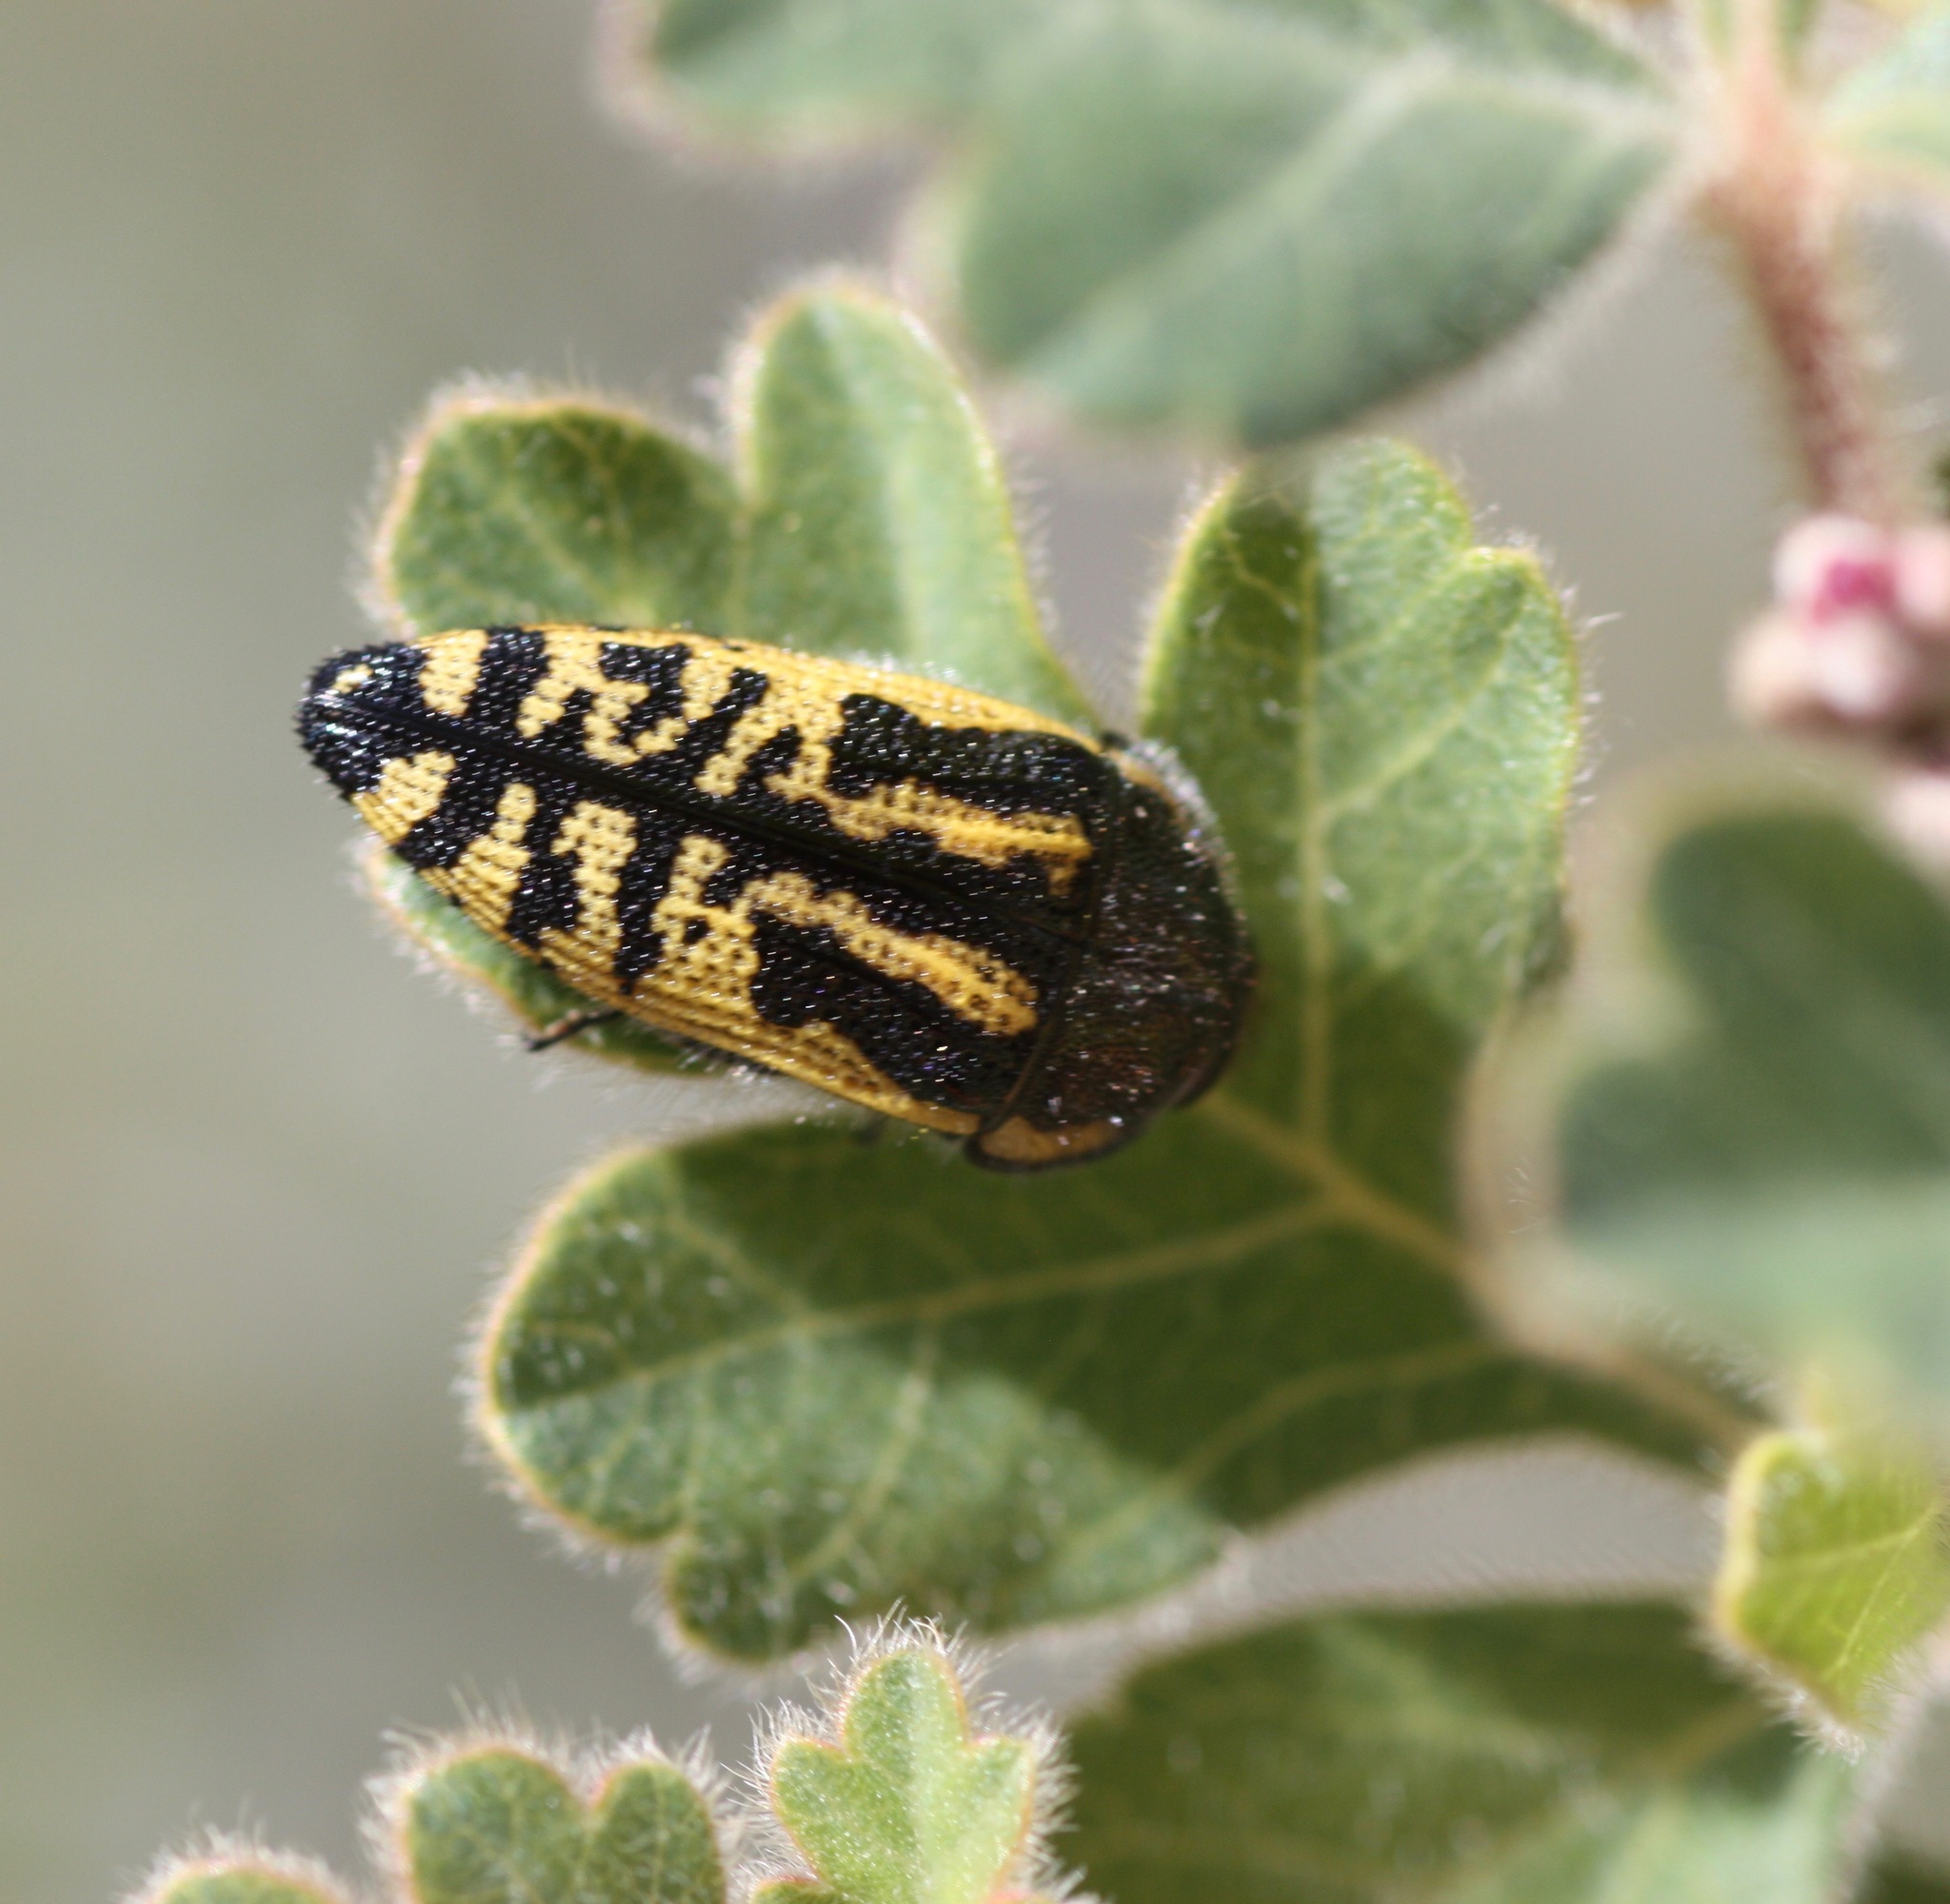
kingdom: Animalia
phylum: Arthropoda
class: Insecta
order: Coleoptera
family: Buprestidae
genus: Acmaeodera
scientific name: Acmaeodera amplicollis
